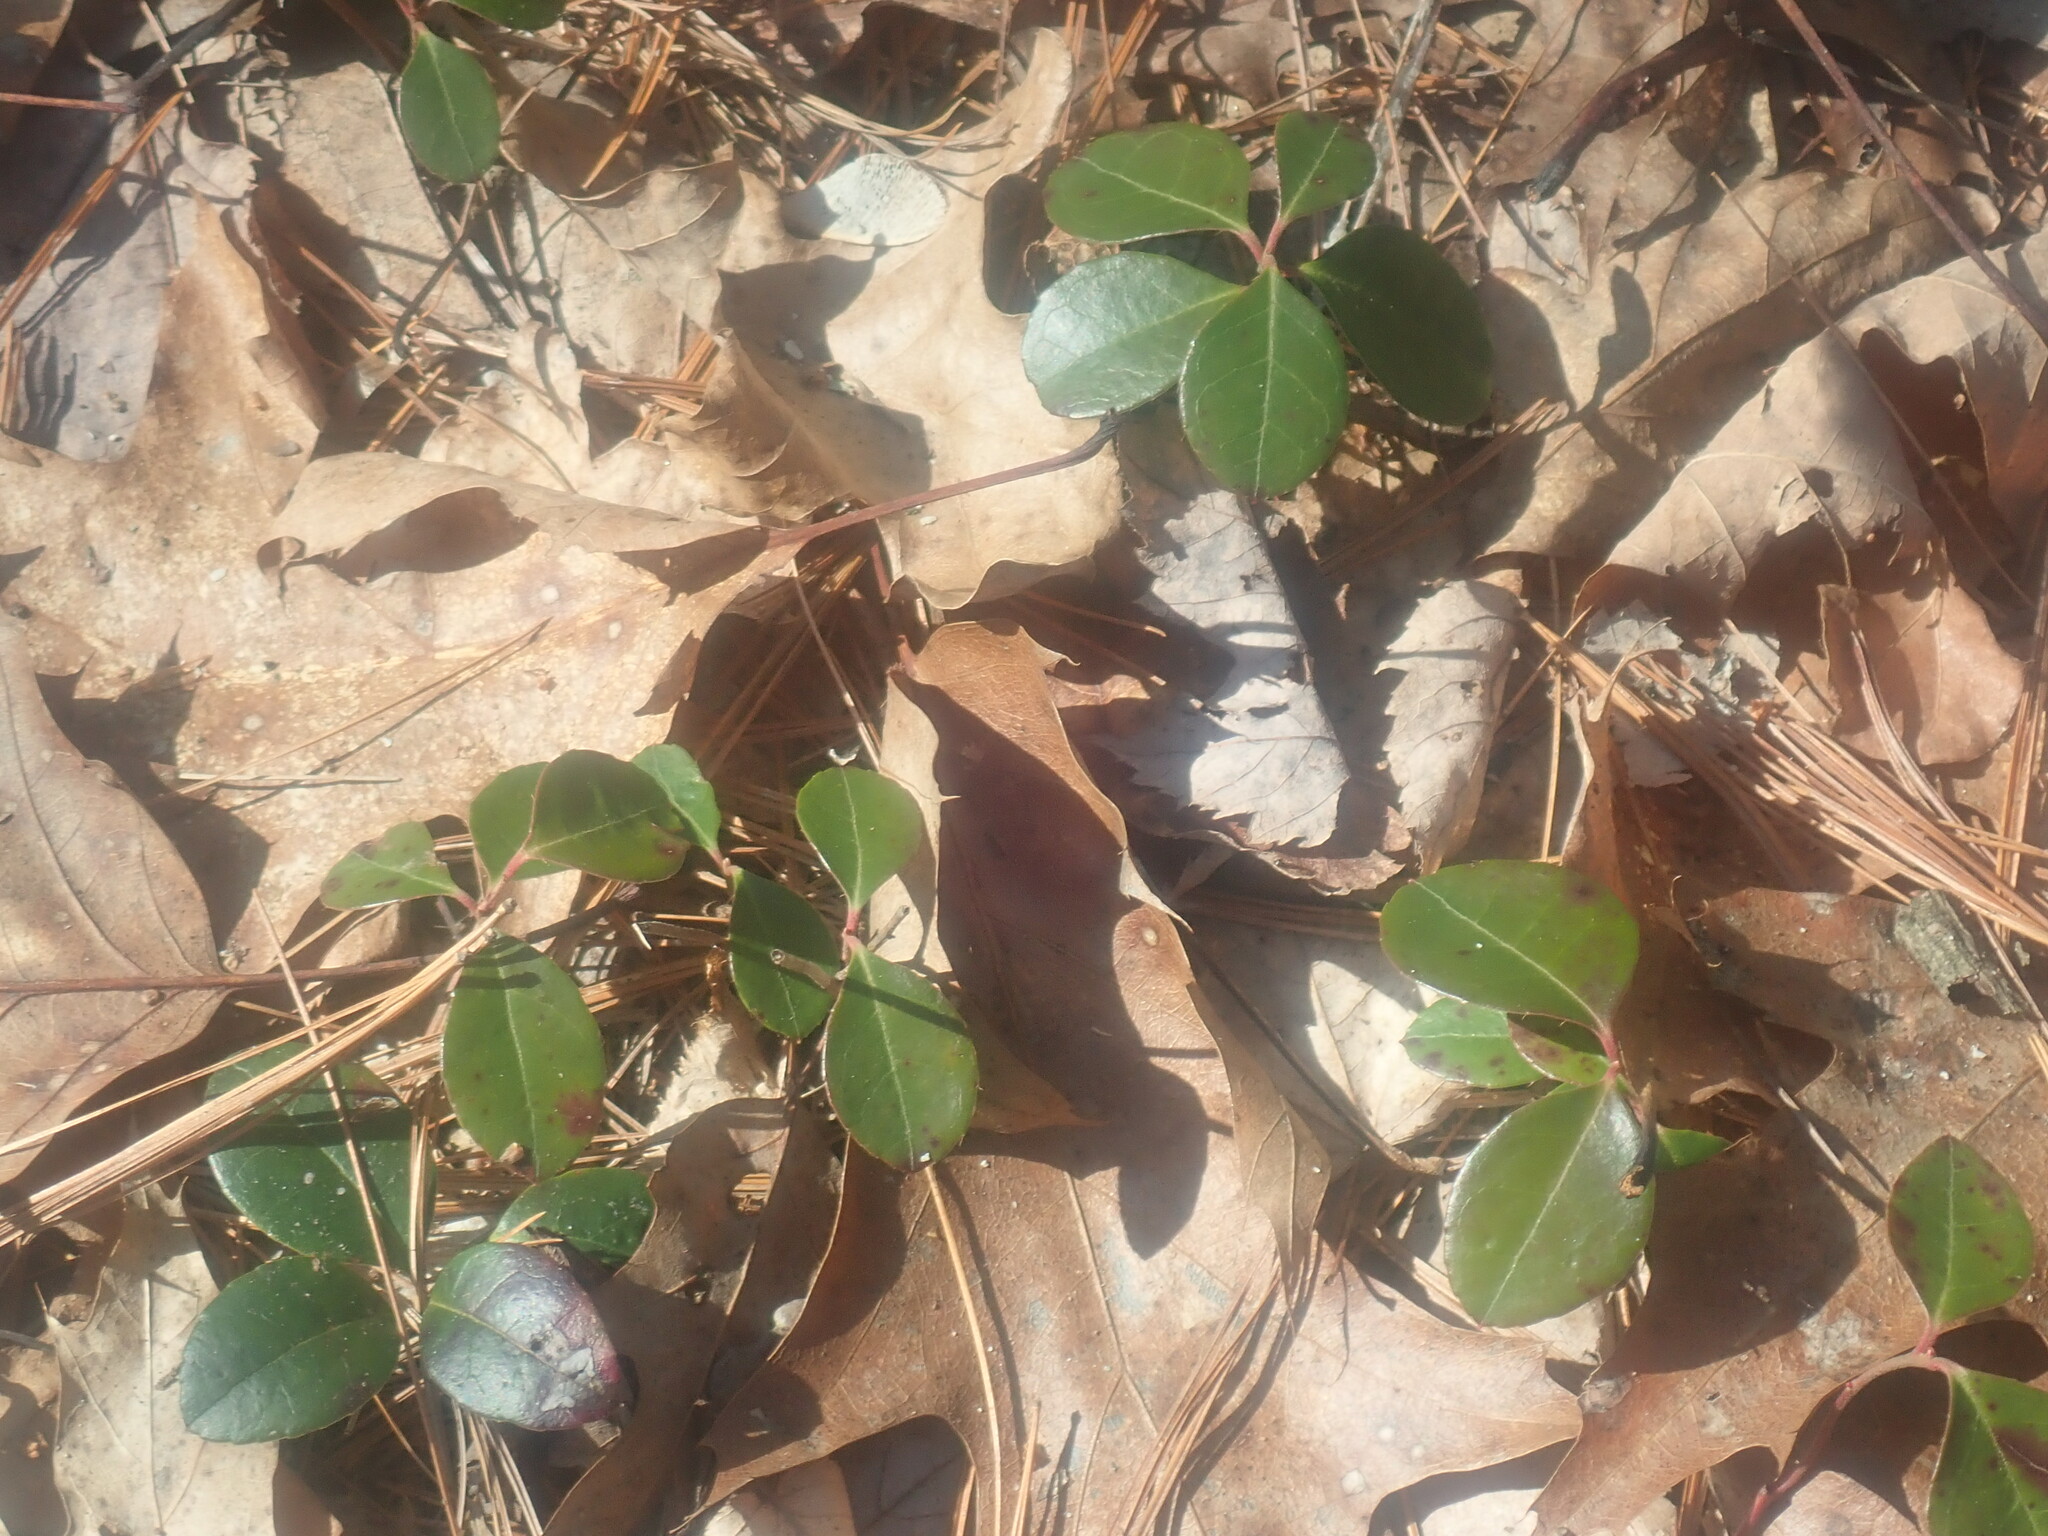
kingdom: Plantae
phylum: Tracheophyta
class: Magnoliopsida
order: Ericales
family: Ericaceae
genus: Gaultheria
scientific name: Gaultheria procumbens
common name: Checkerberry
